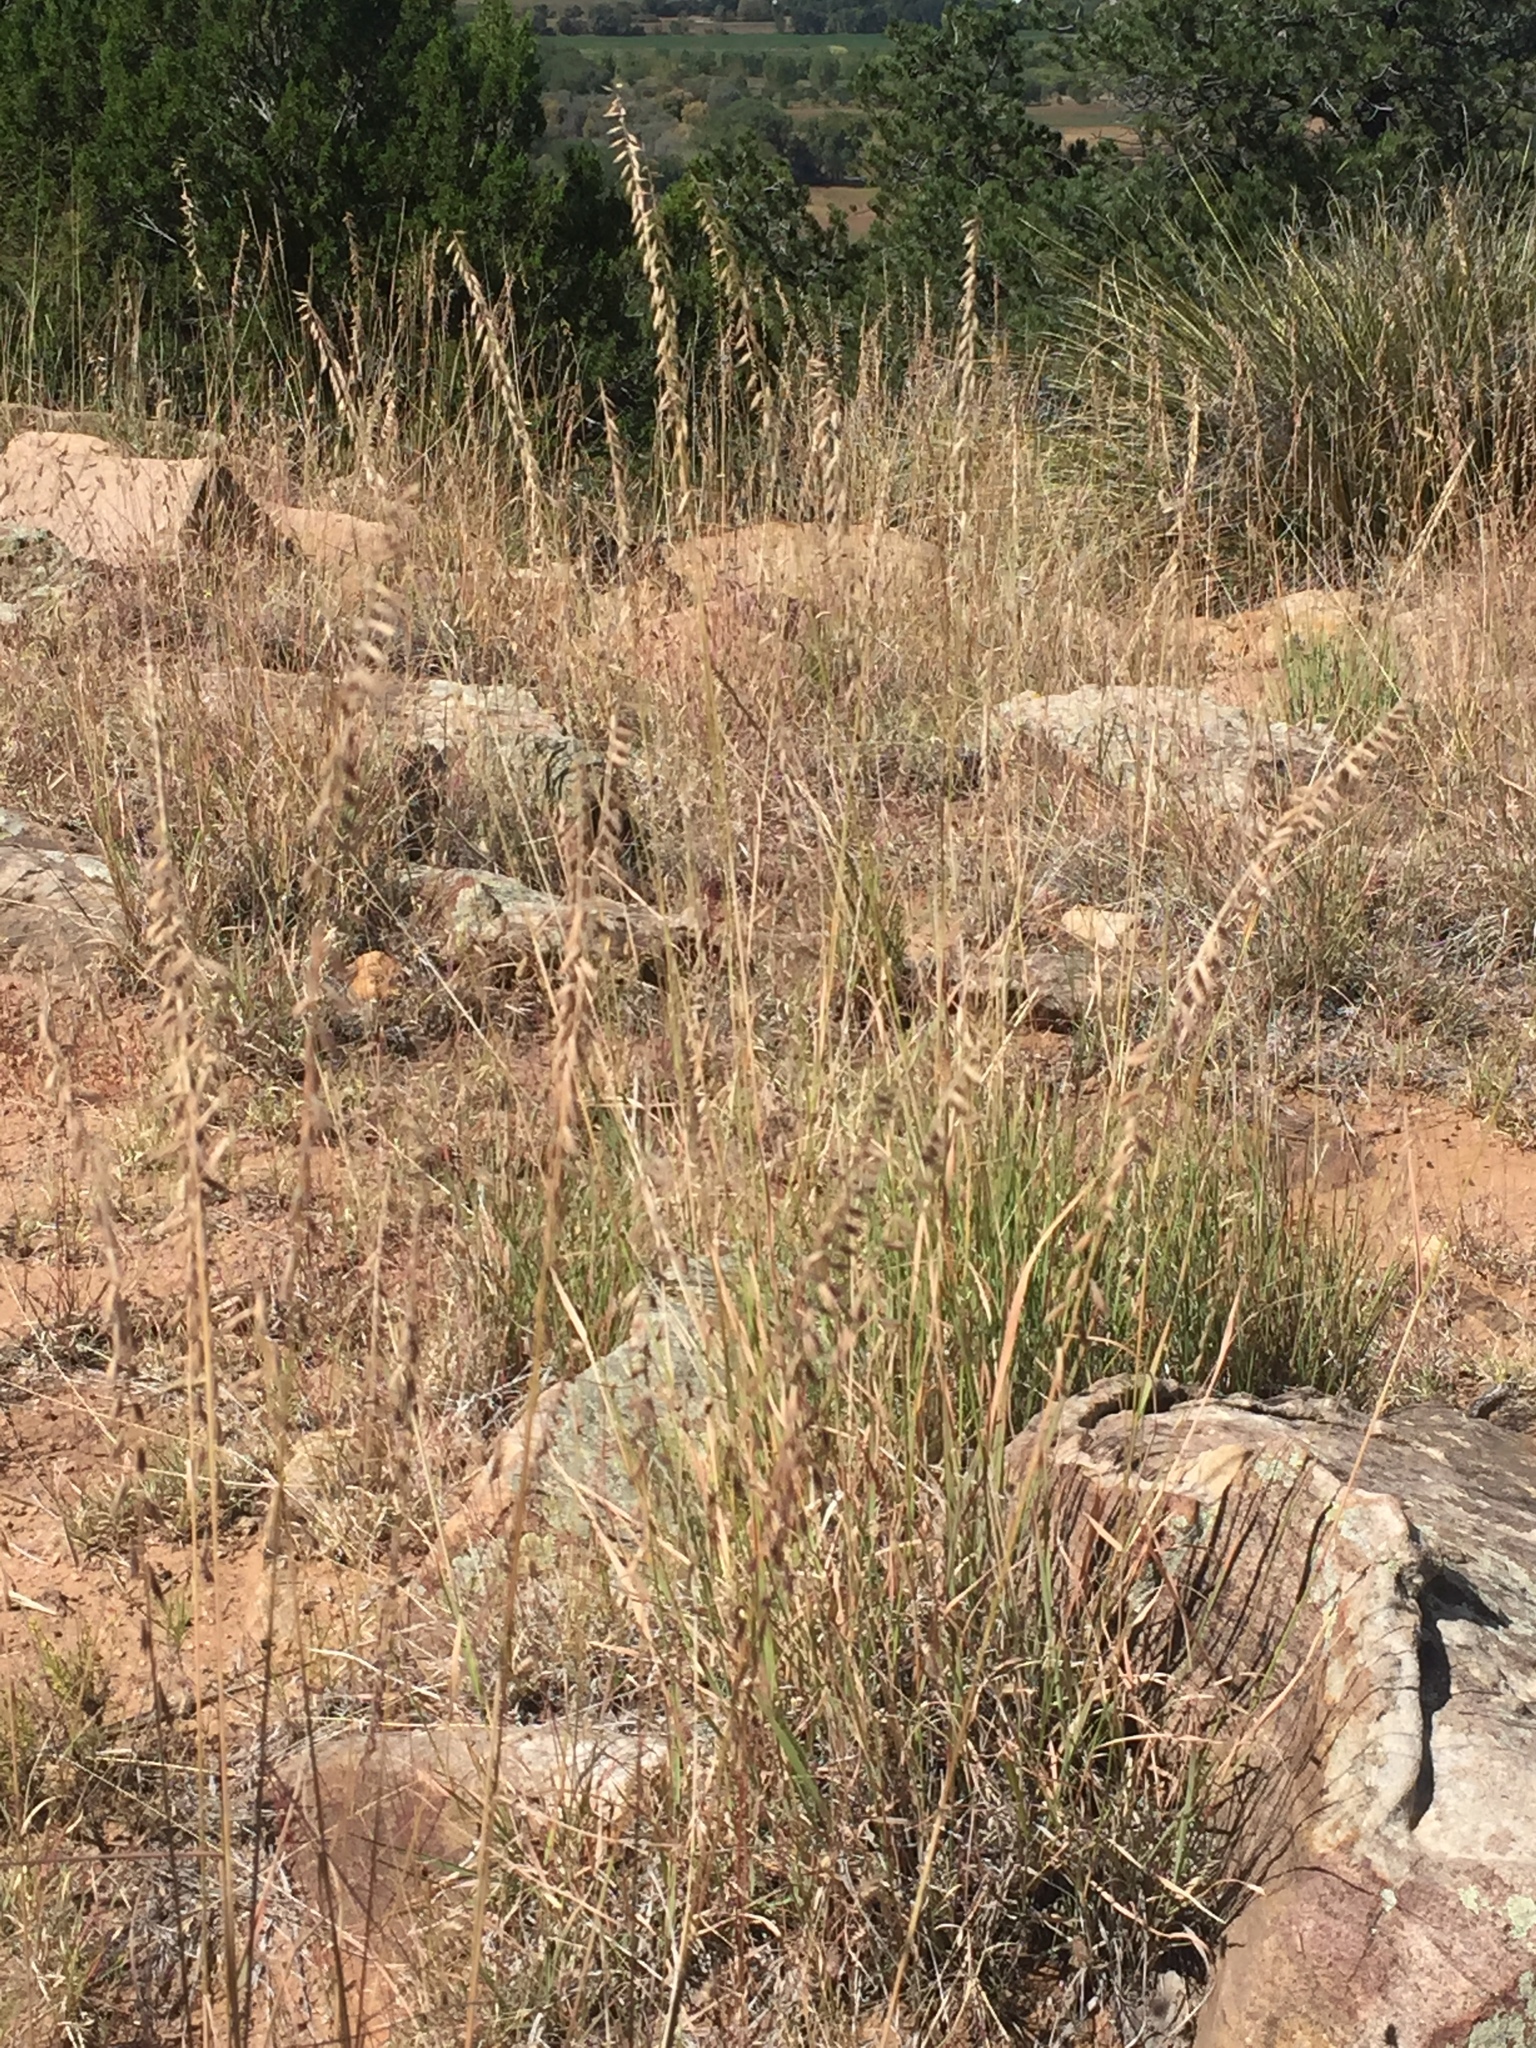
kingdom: Plantae
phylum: Tracheophyta
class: Liliopsida
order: Poales
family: Poaceae
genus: Bouteloua
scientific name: Bouteloua curtipendula
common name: Side-oats grama
